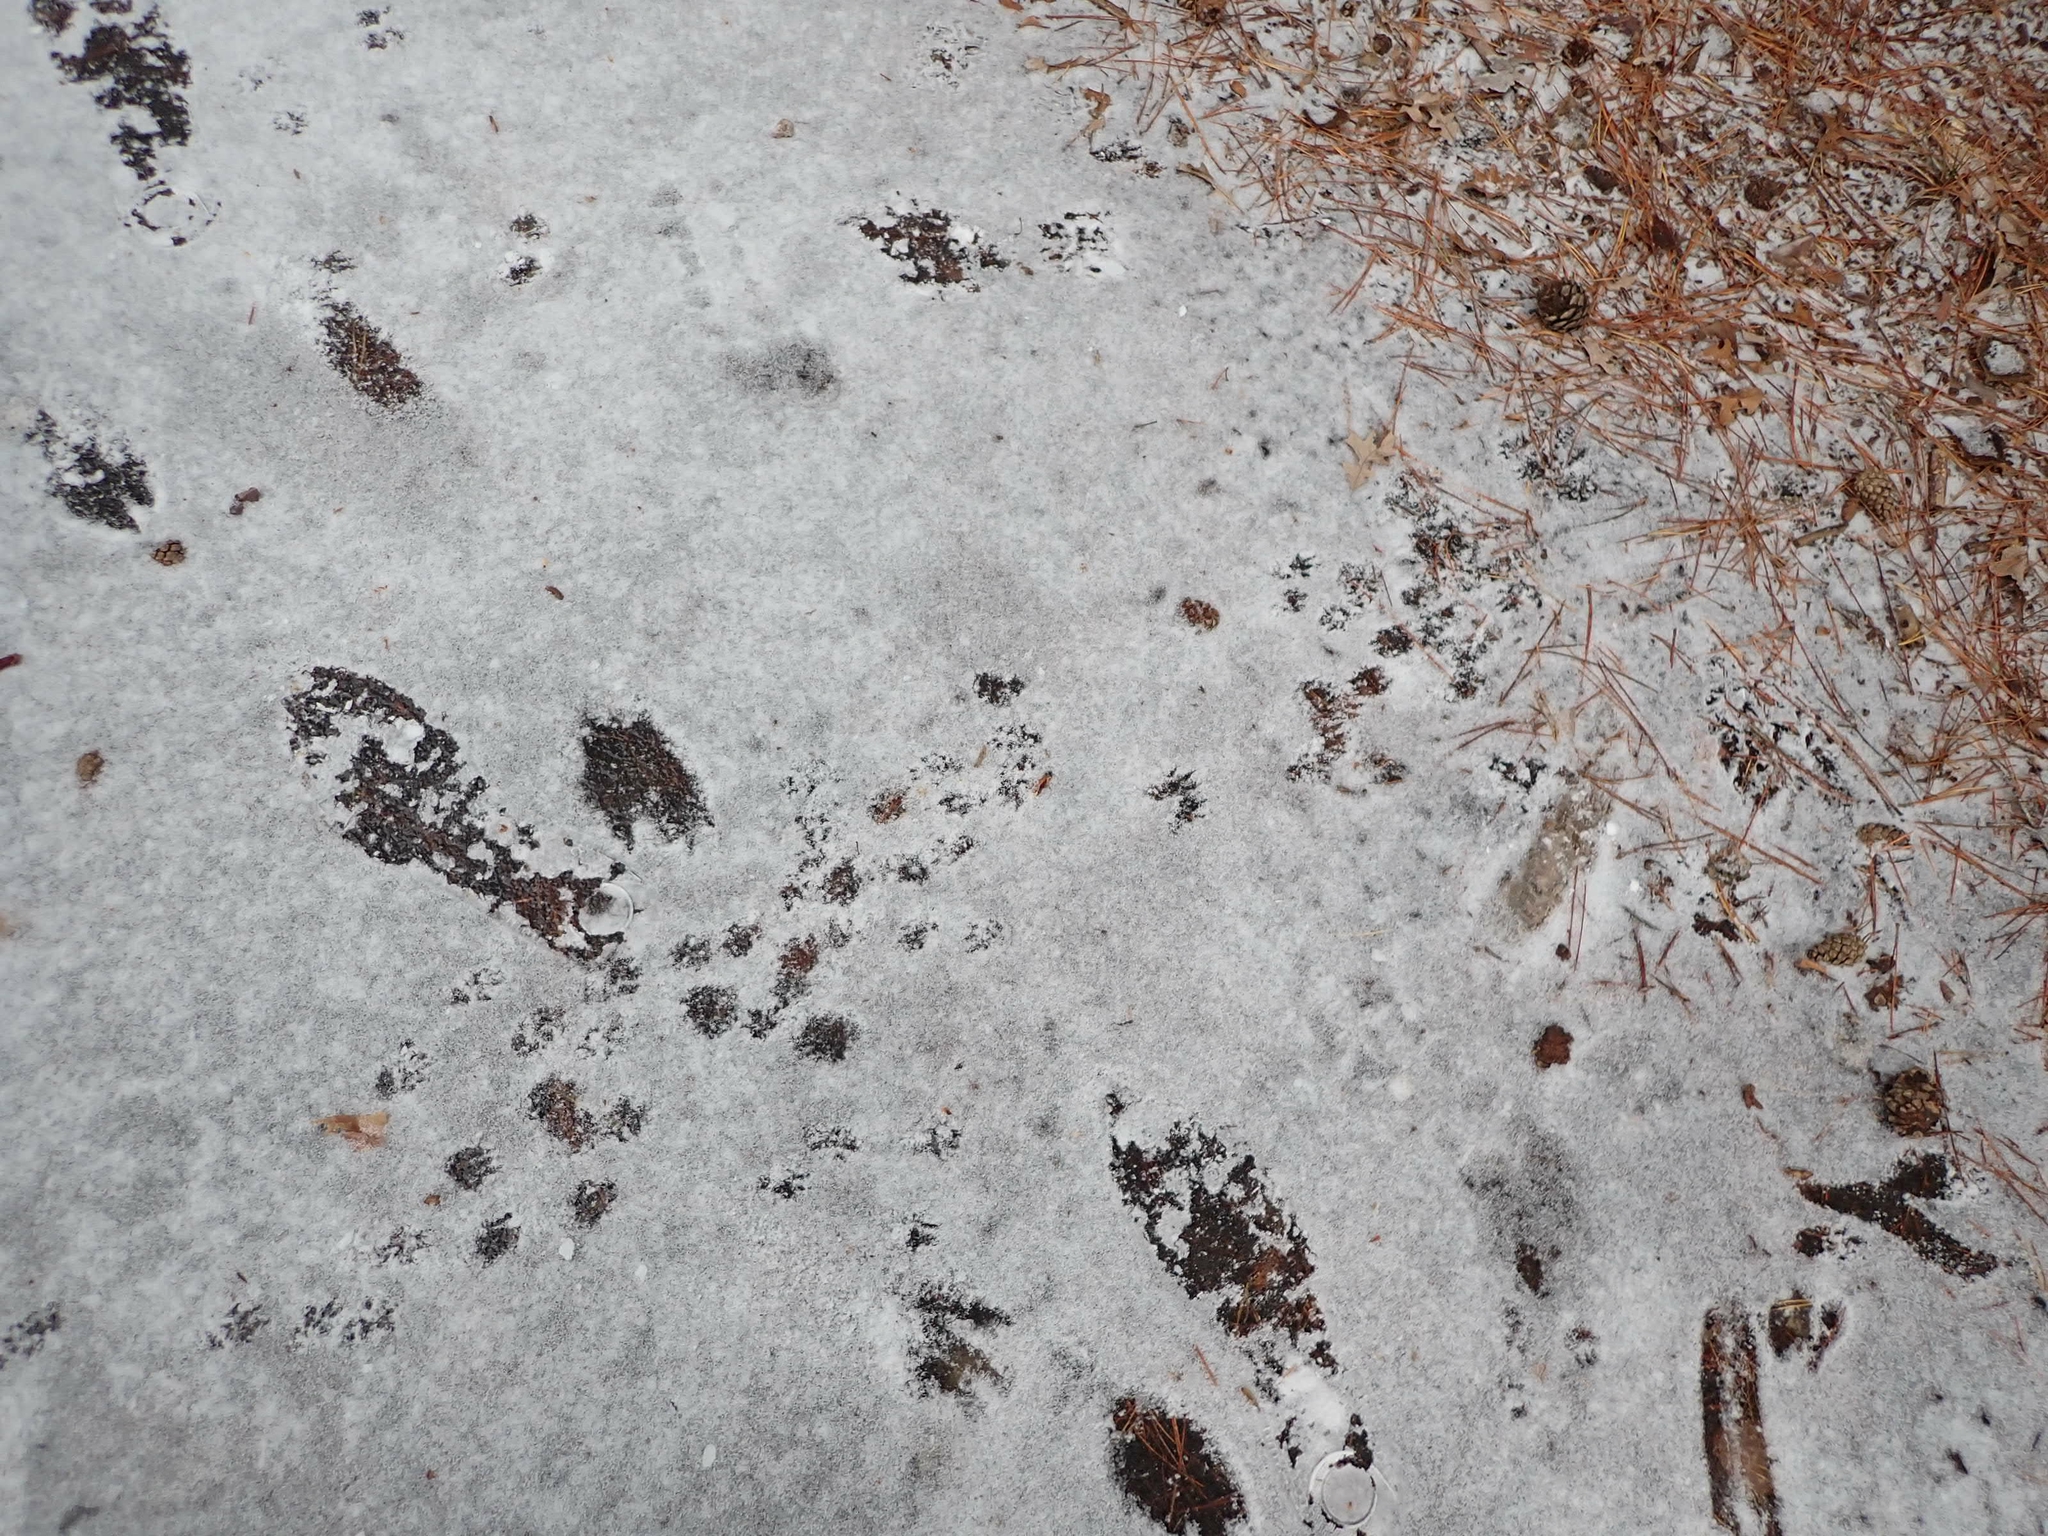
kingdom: Animalia
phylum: Chordata
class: Mammalia
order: Rodentia
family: Sciuridae
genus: Tamiasciurus
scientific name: Tamiasciurus hudsonicus
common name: Red squirrel
